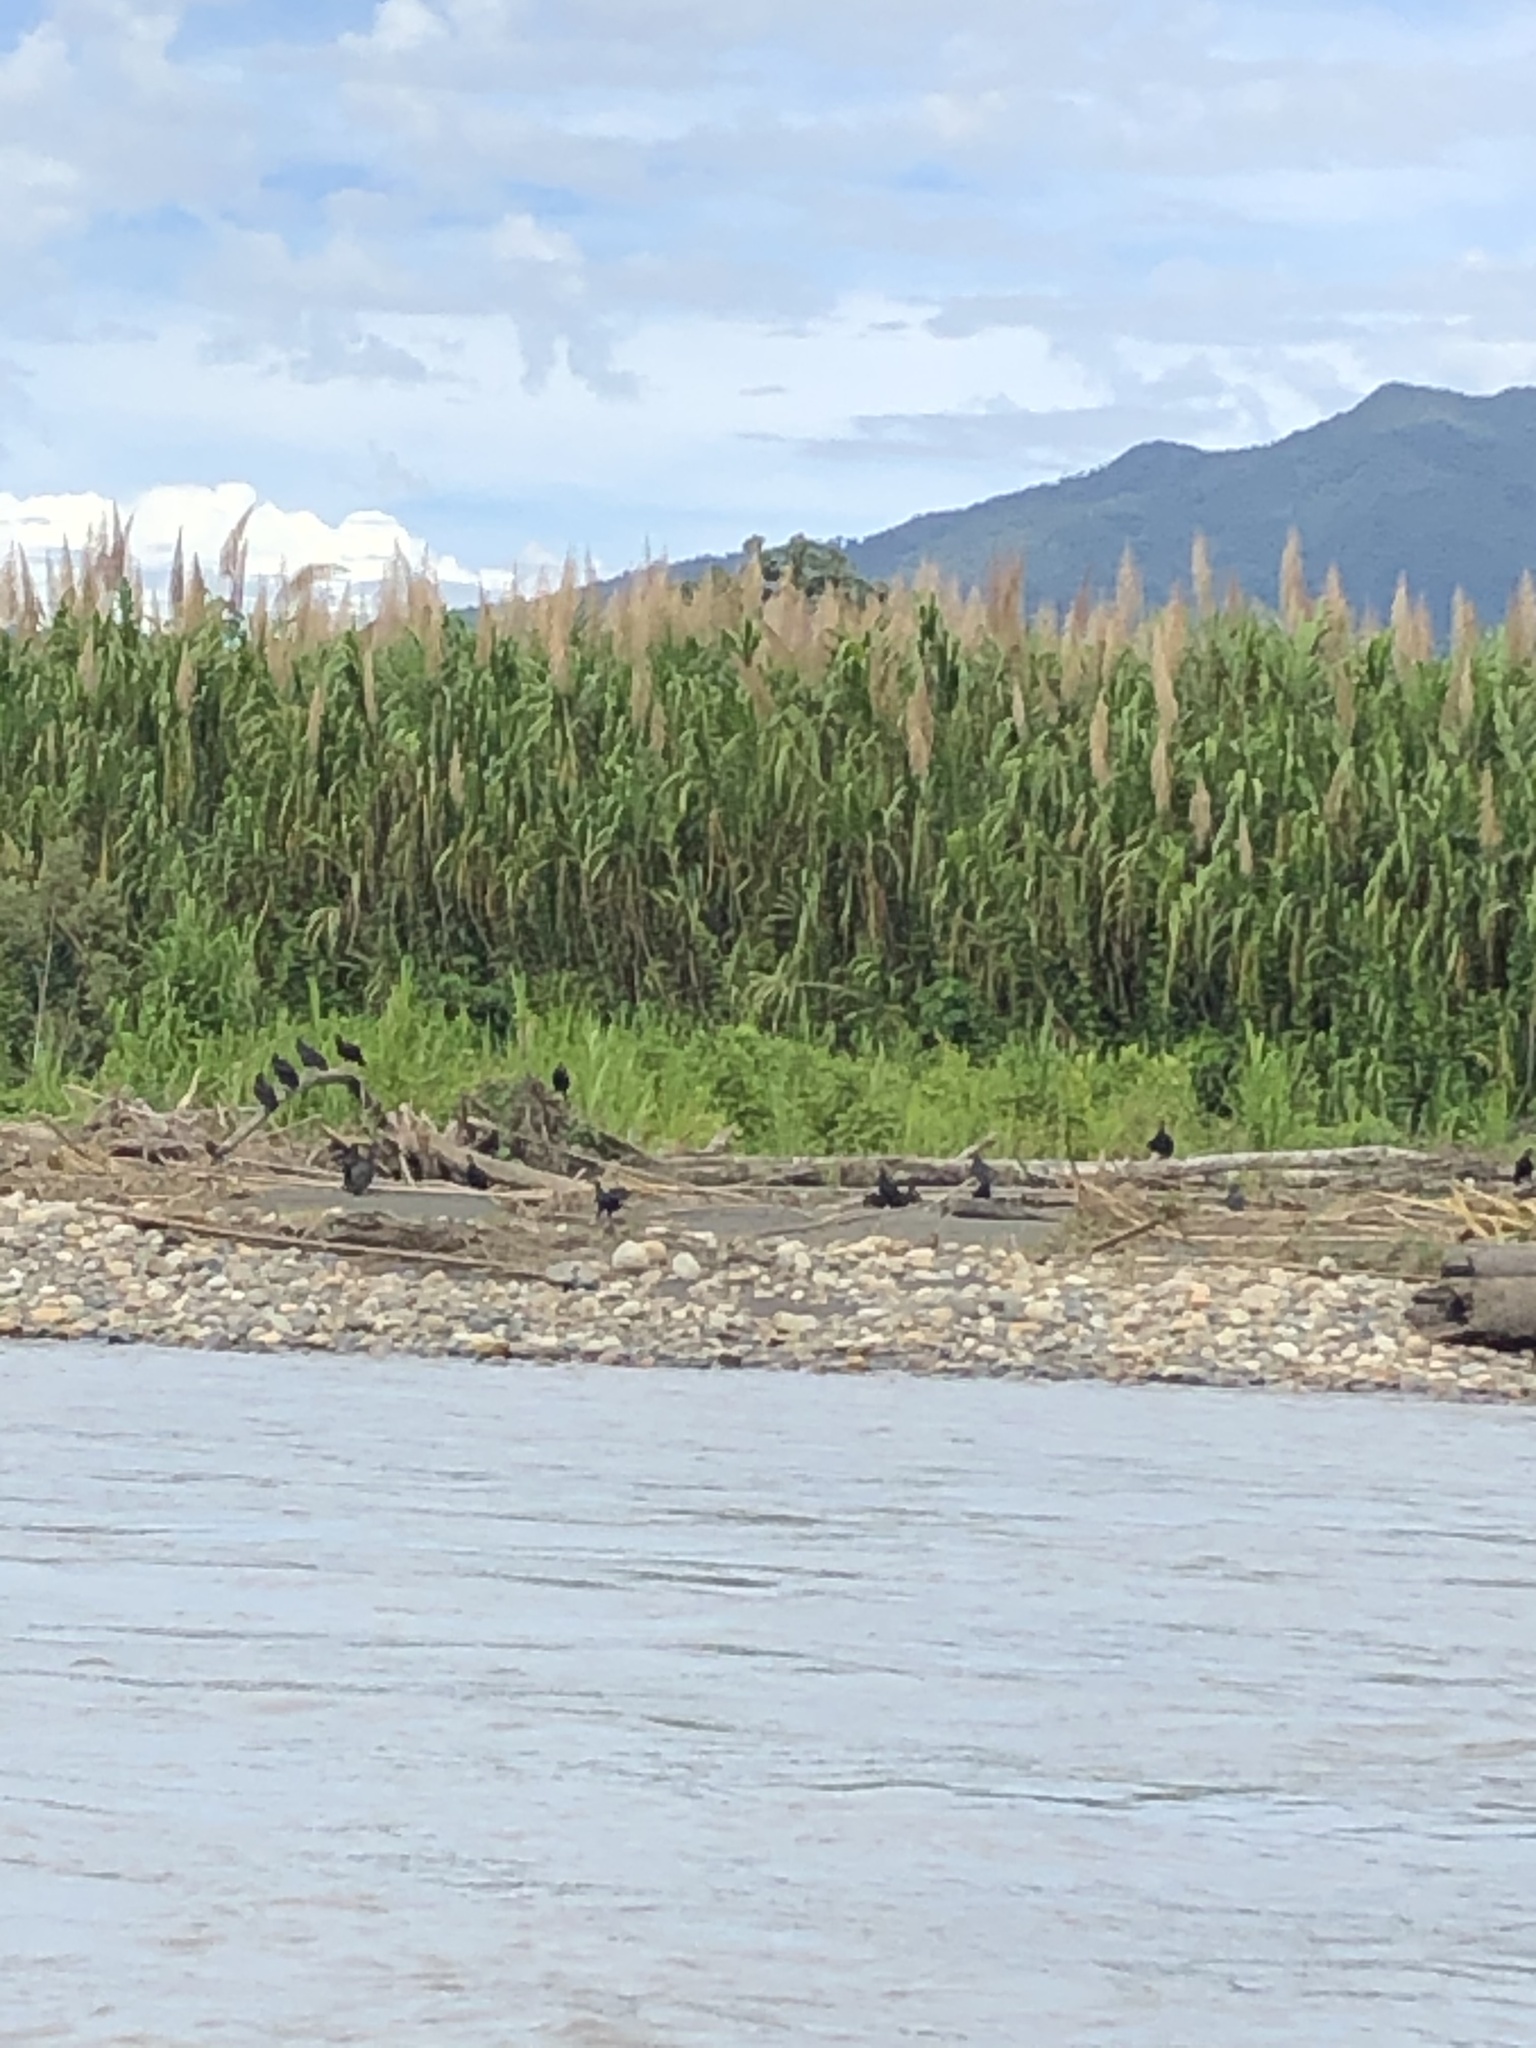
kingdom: Animalia
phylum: Chordata
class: Aves
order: Accipitriformes
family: Cathartidae
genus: Coragyps
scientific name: Coragyps atratus
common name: Black vulture
